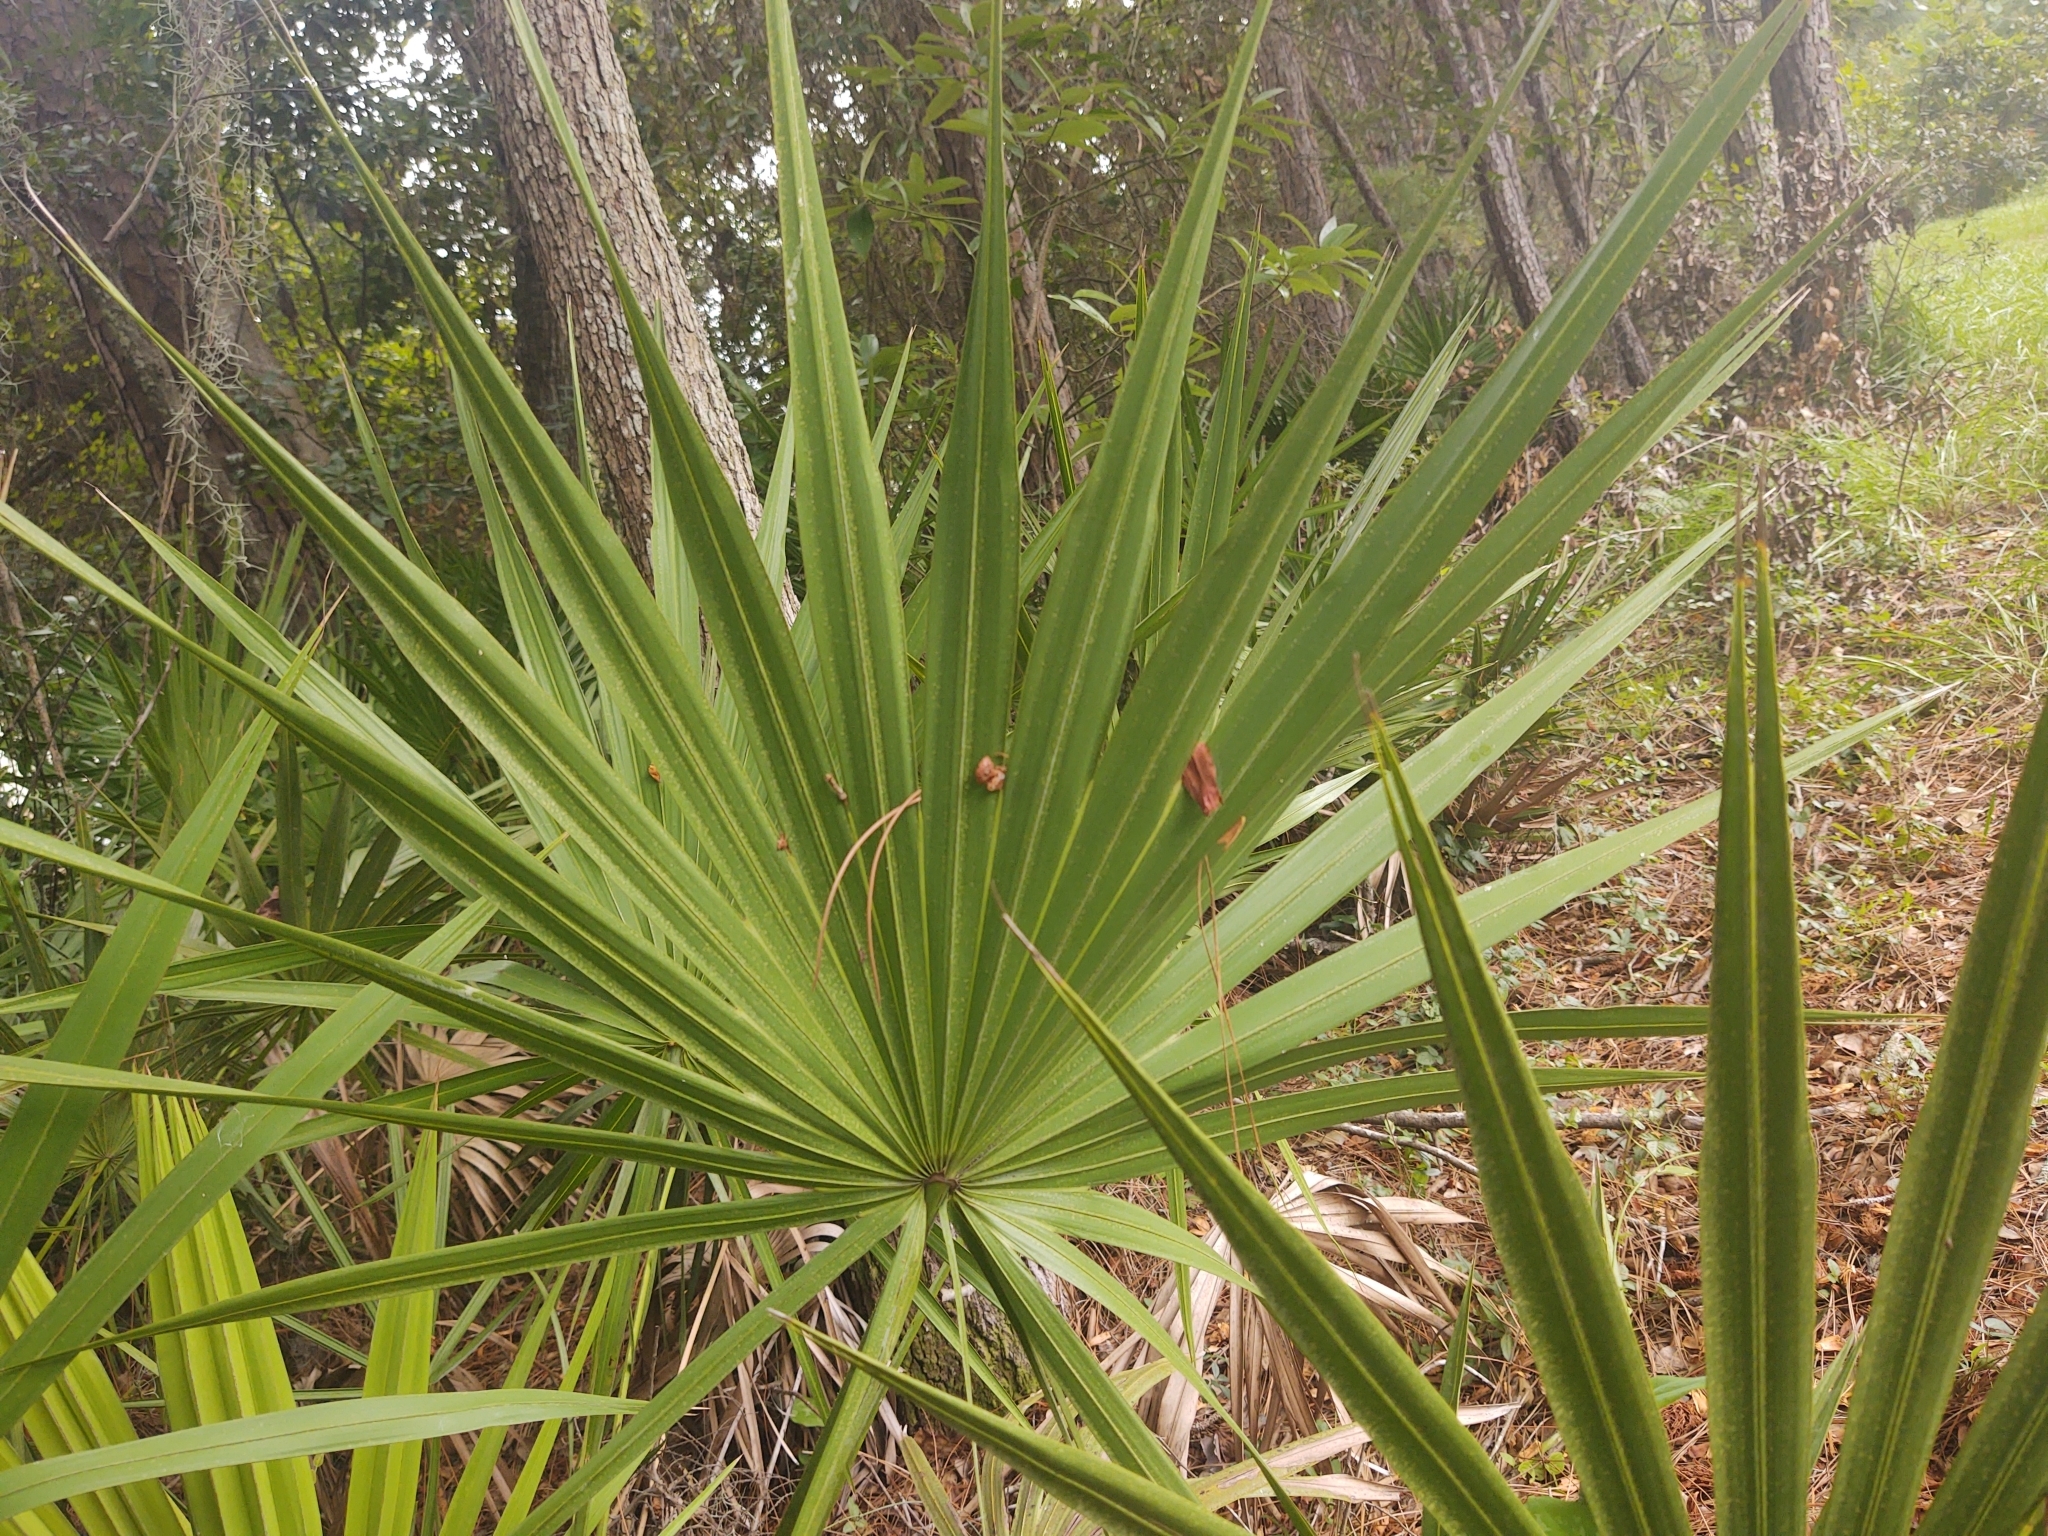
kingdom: Plantae
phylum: Tracheophyta
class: Liliopsida
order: Arecales
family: Arecaceae
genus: Serenoa
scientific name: Serenoa repens
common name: Saw-palmetto
